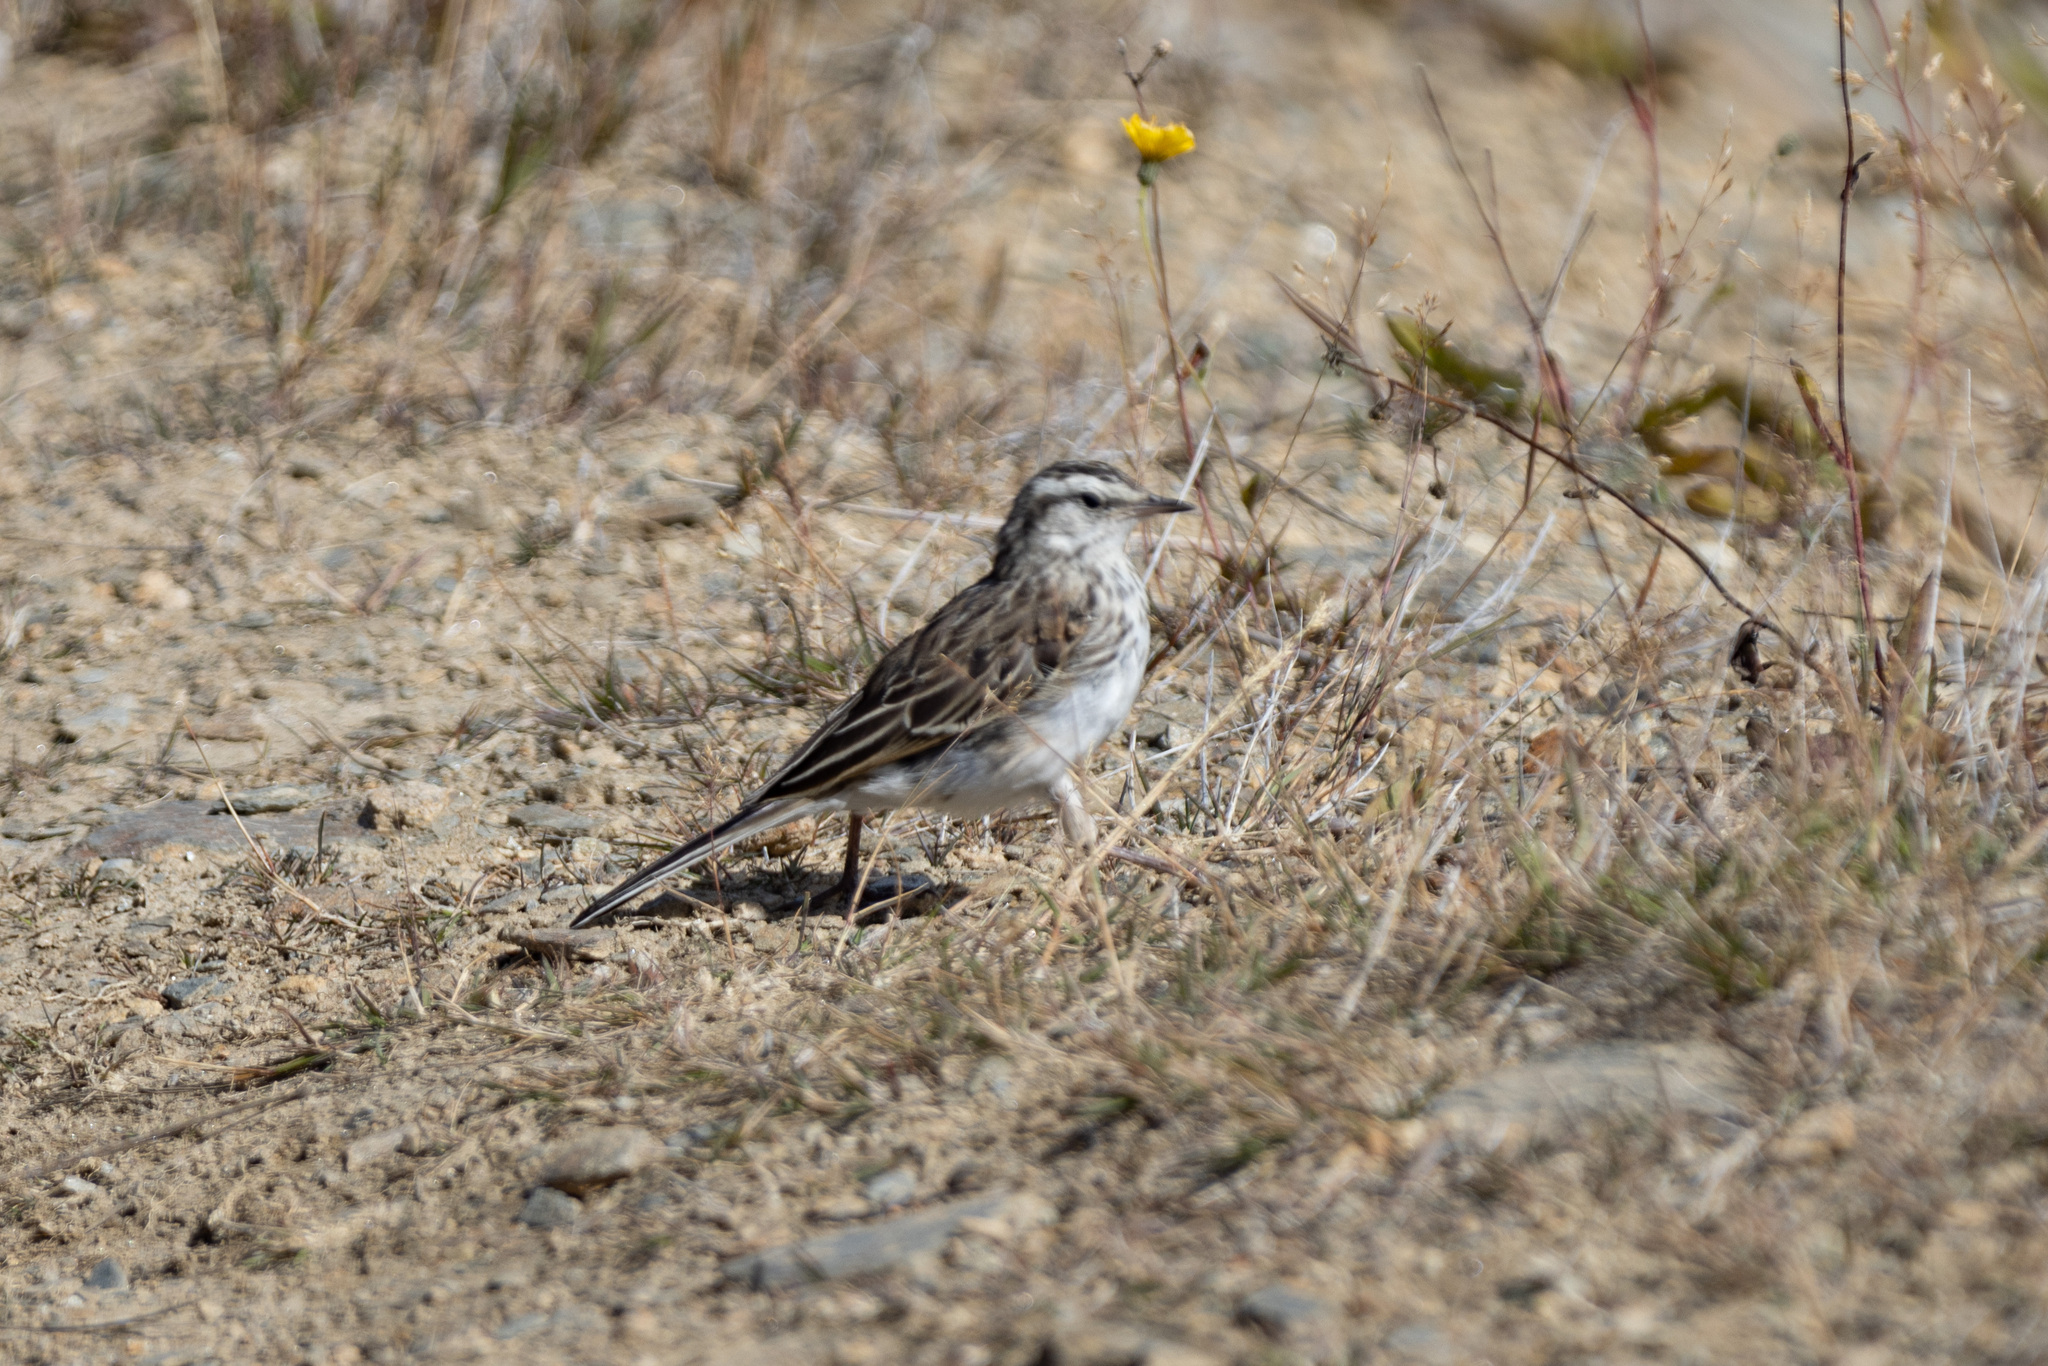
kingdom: Animalia
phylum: Chordata
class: Aves
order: Passeriformes
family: Motacillidae
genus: Anthus
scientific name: Anthus novaeseelandiae
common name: New zealand pipit
